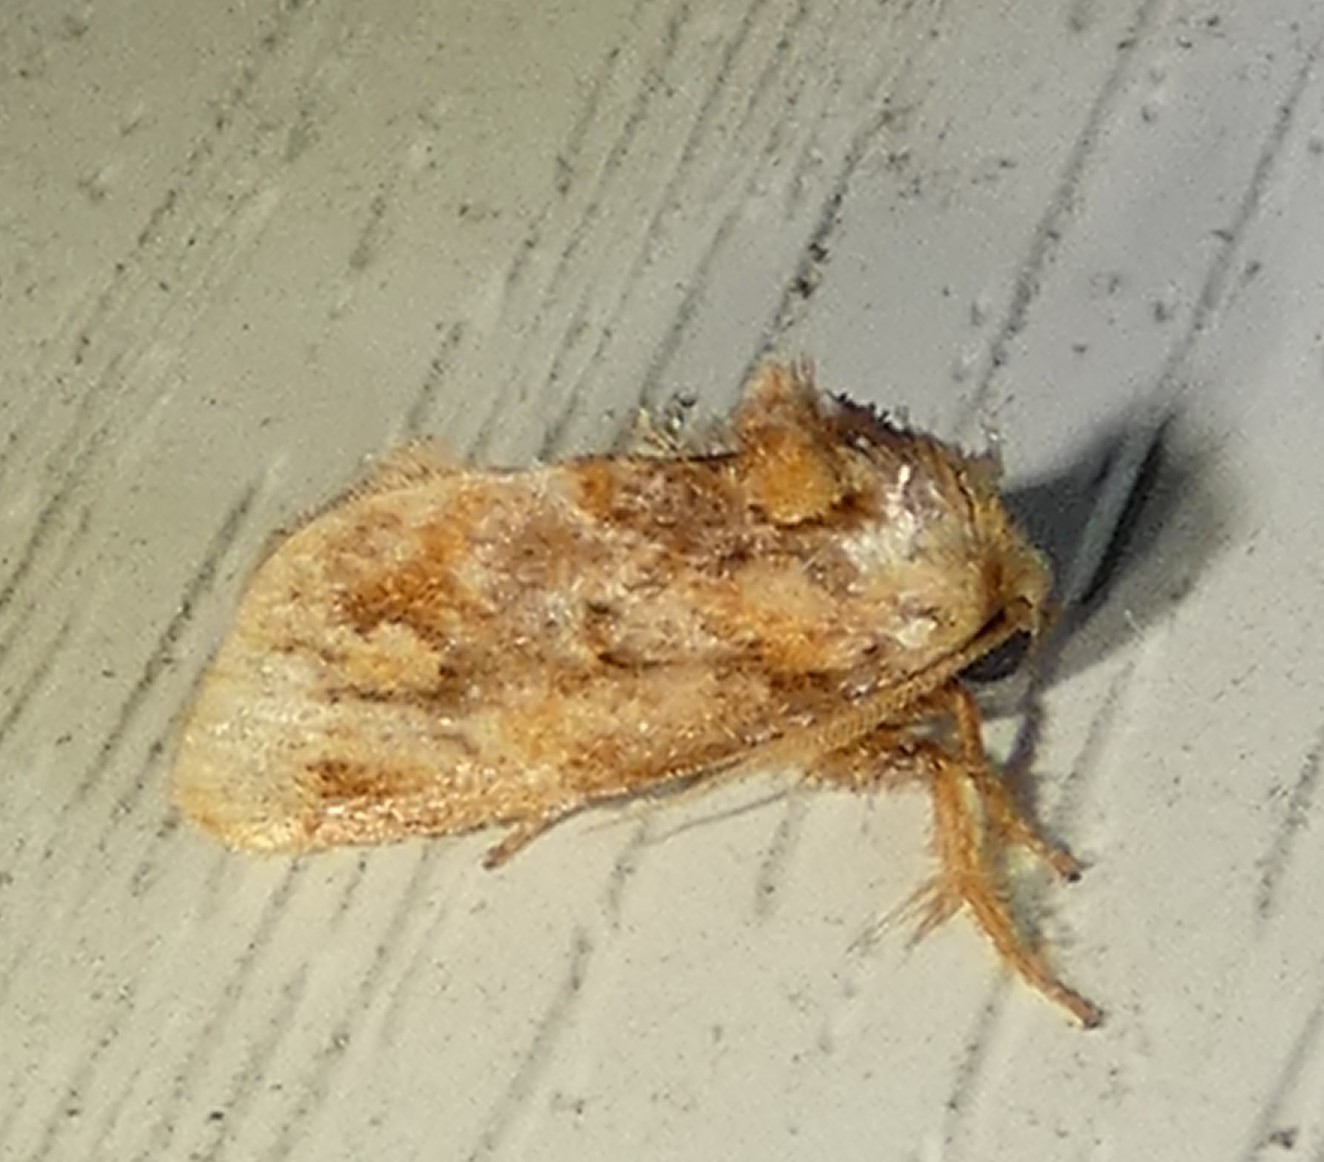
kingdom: Animalia
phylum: Arthropoda
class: Insecta
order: Lepidoptera
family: Limacodidae
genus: Isochaetes
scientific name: Isochaetes beutenmuelleri
